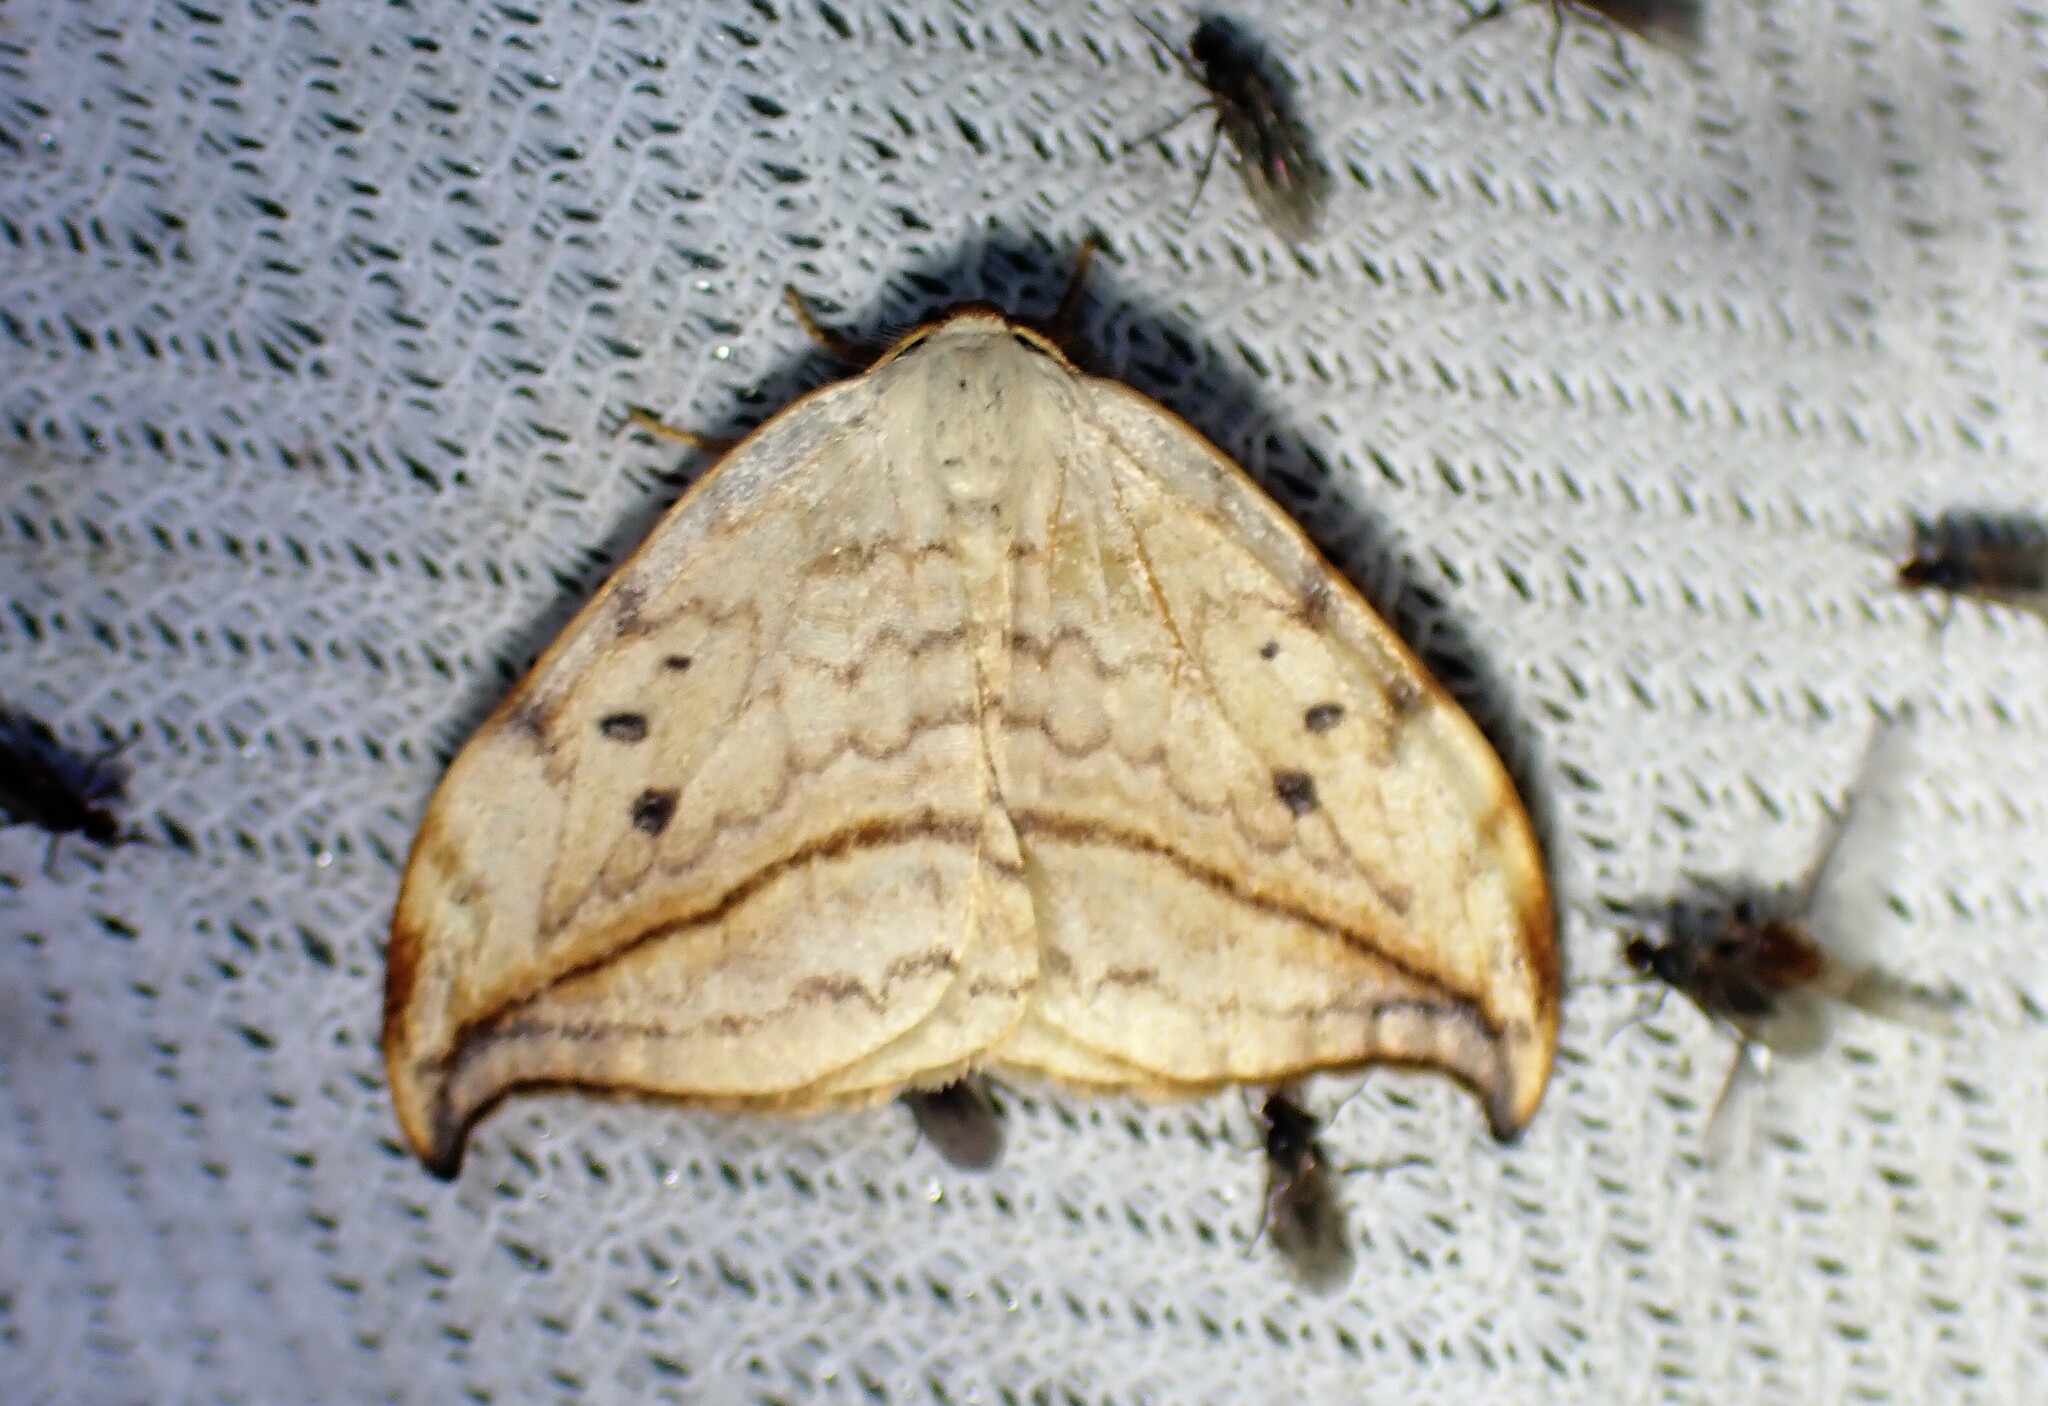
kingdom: Animalia
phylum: Arthropoda
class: Insecta
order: Lepidoptera
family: Drepanidae
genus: Drepana
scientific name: Drepana arcuata
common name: Arched hooktip moth
